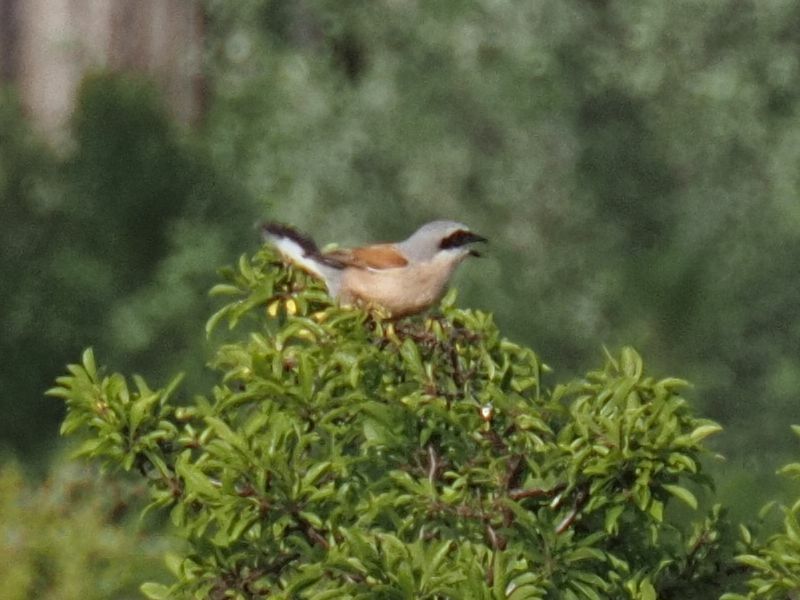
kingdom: Animalia
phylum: Chordata
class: Aves
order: Passeriformes
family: Laniidae
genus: Lanius
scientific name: Lanius collurio
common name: Red-backed shrike
